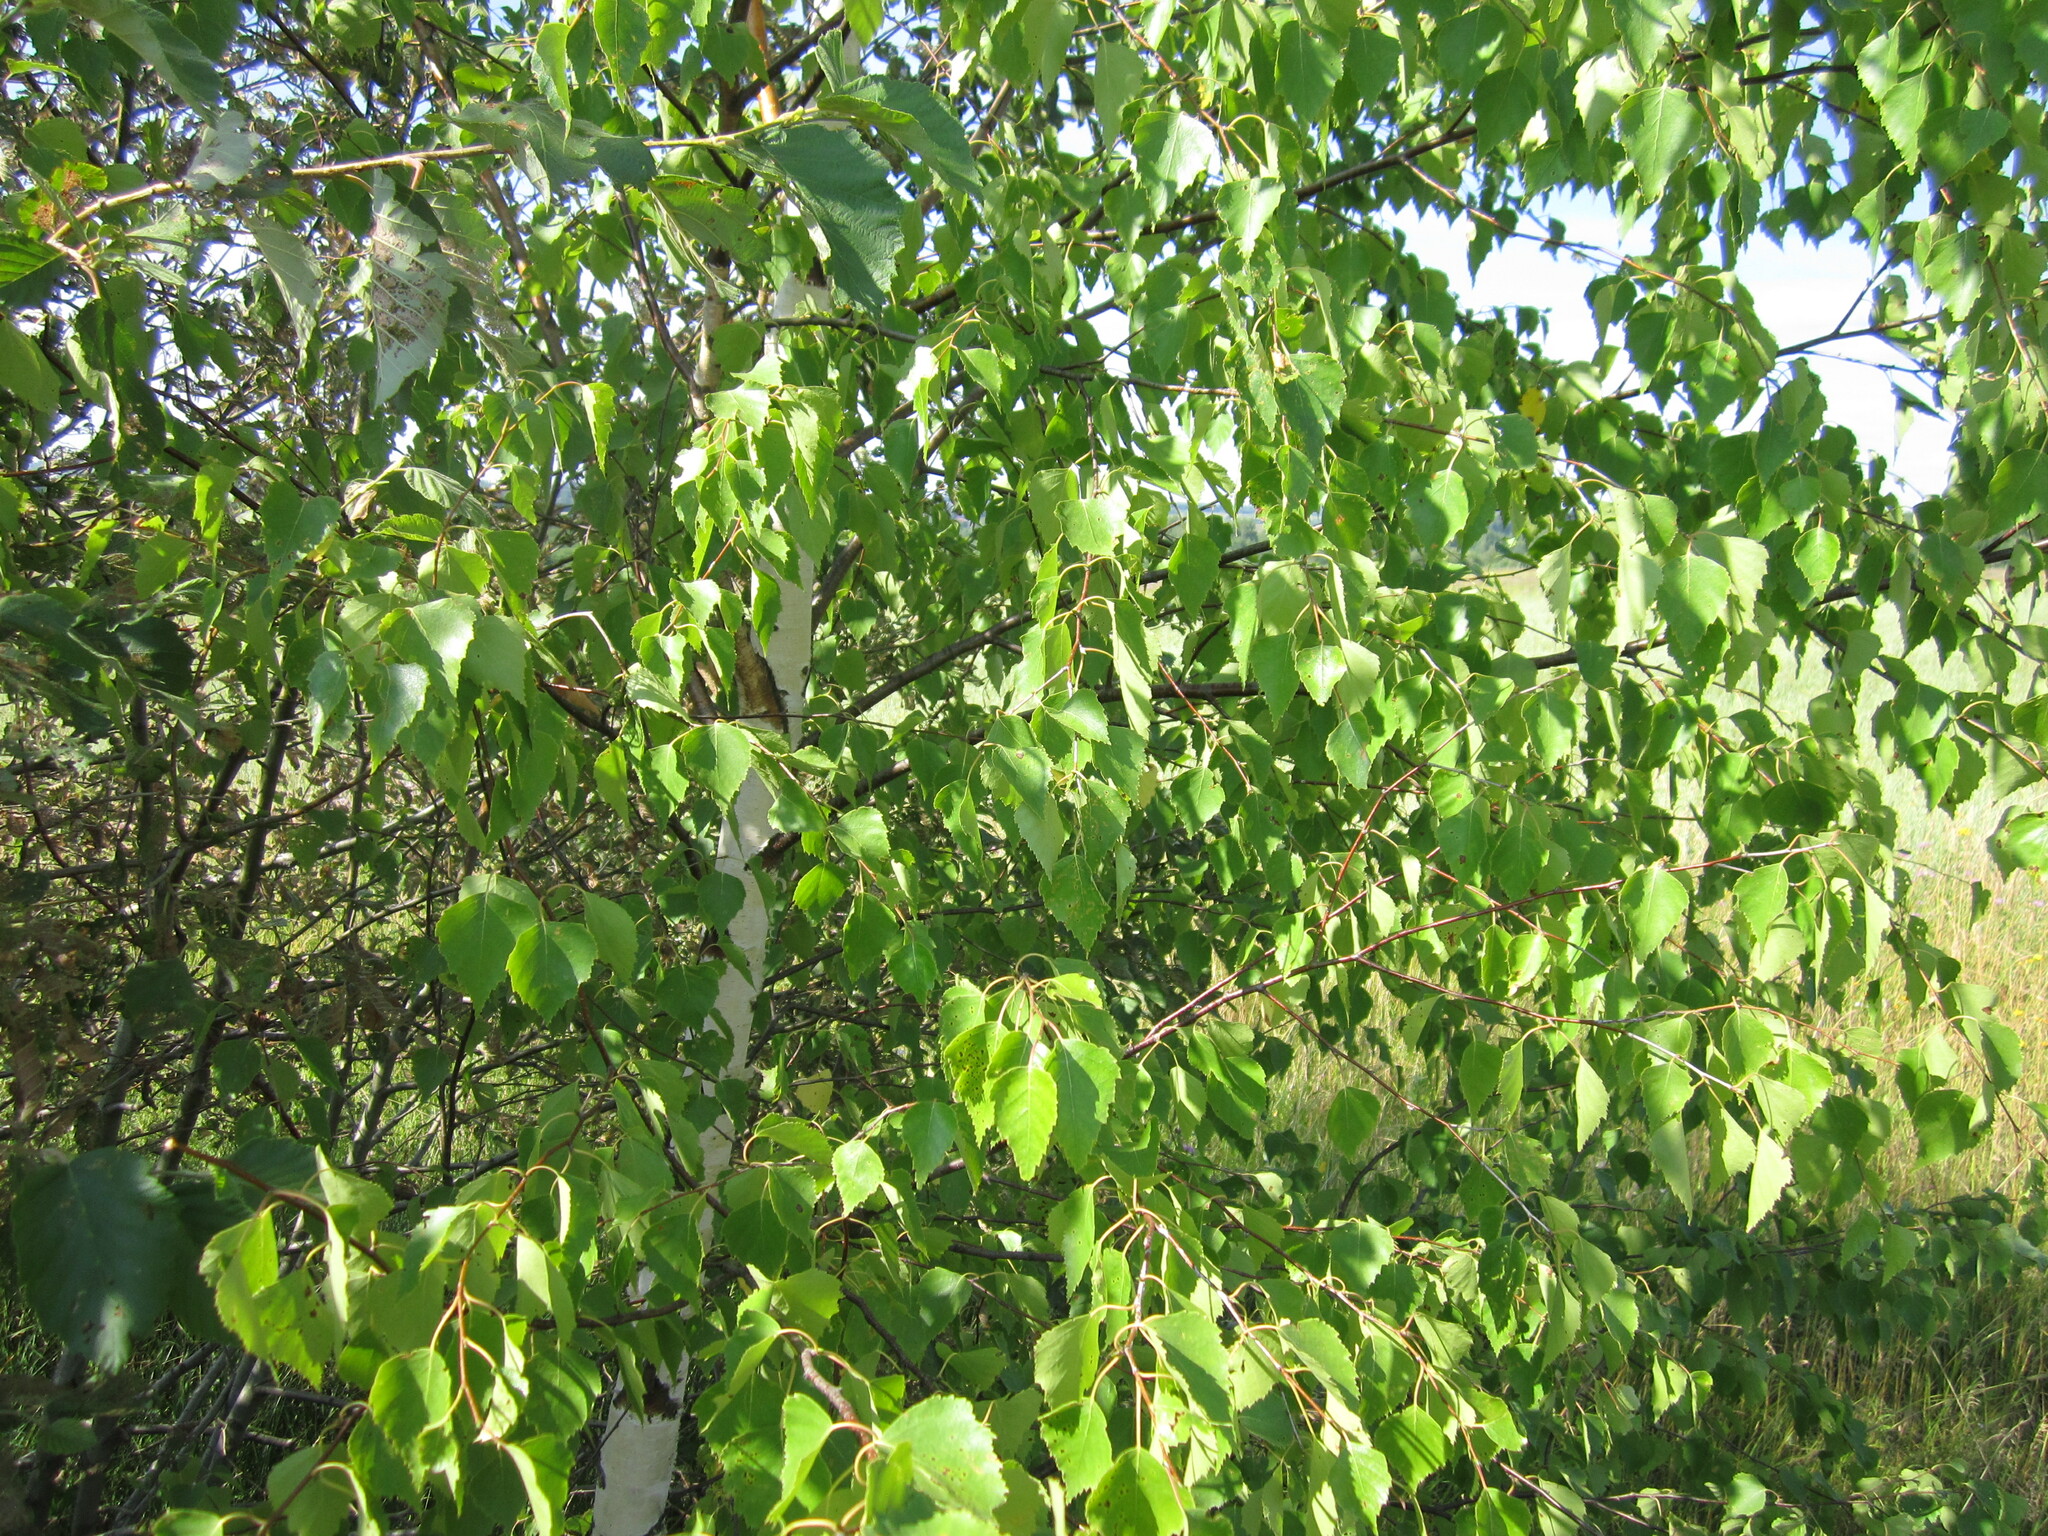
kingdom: Plantae
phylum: Tracheophyta
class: Magnoliopsida
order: Fagales
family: Betulaceae
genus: Betula
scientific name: Betula pendula
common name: Silver birch
